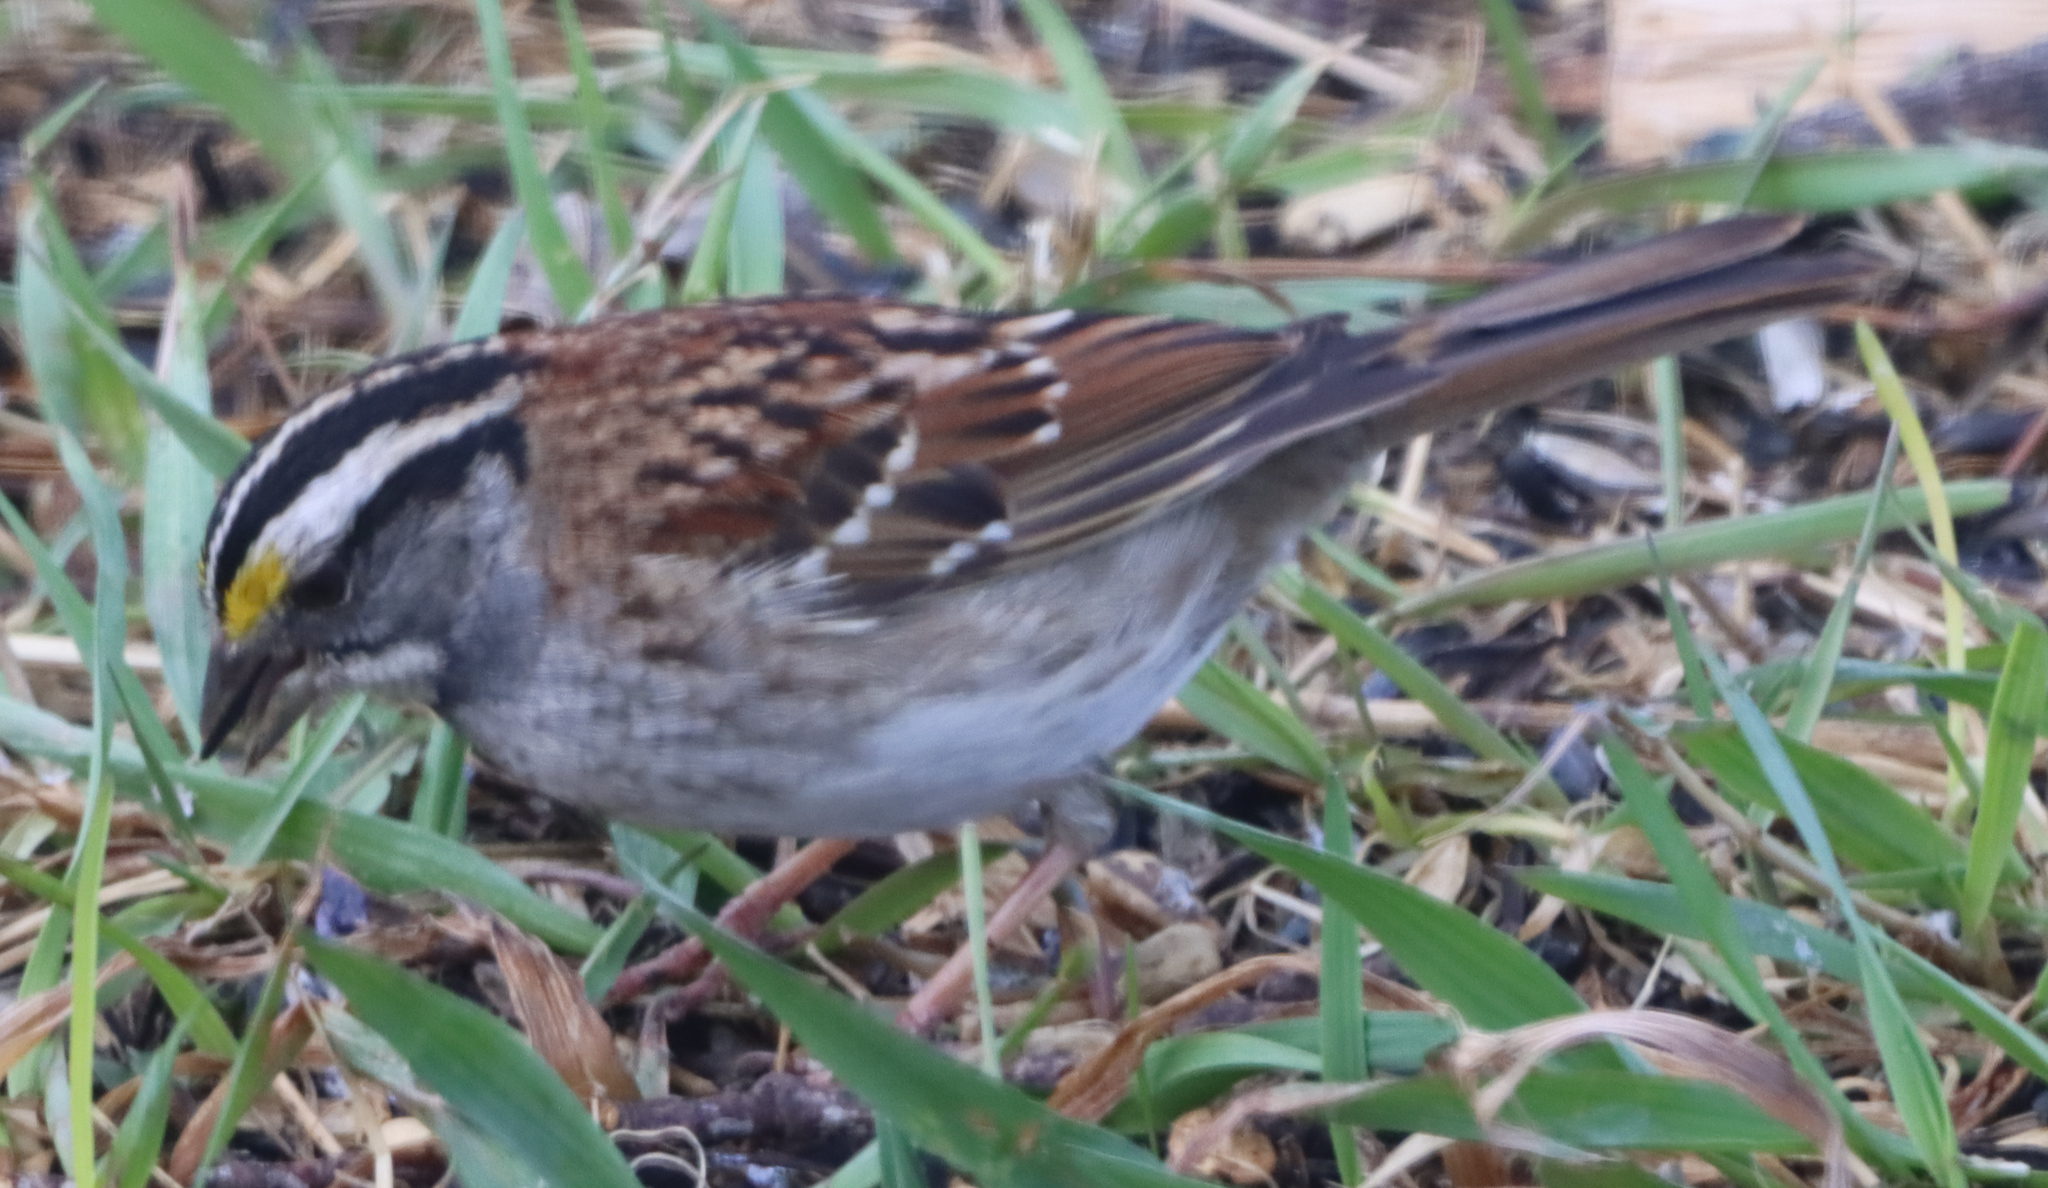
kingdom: Animalia
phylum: Chordata
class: Aves
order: Passeriformes
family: Passerellidae
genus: Zonotrichia
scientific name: Zonotrichia albicollis
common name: White-throated sparrow
